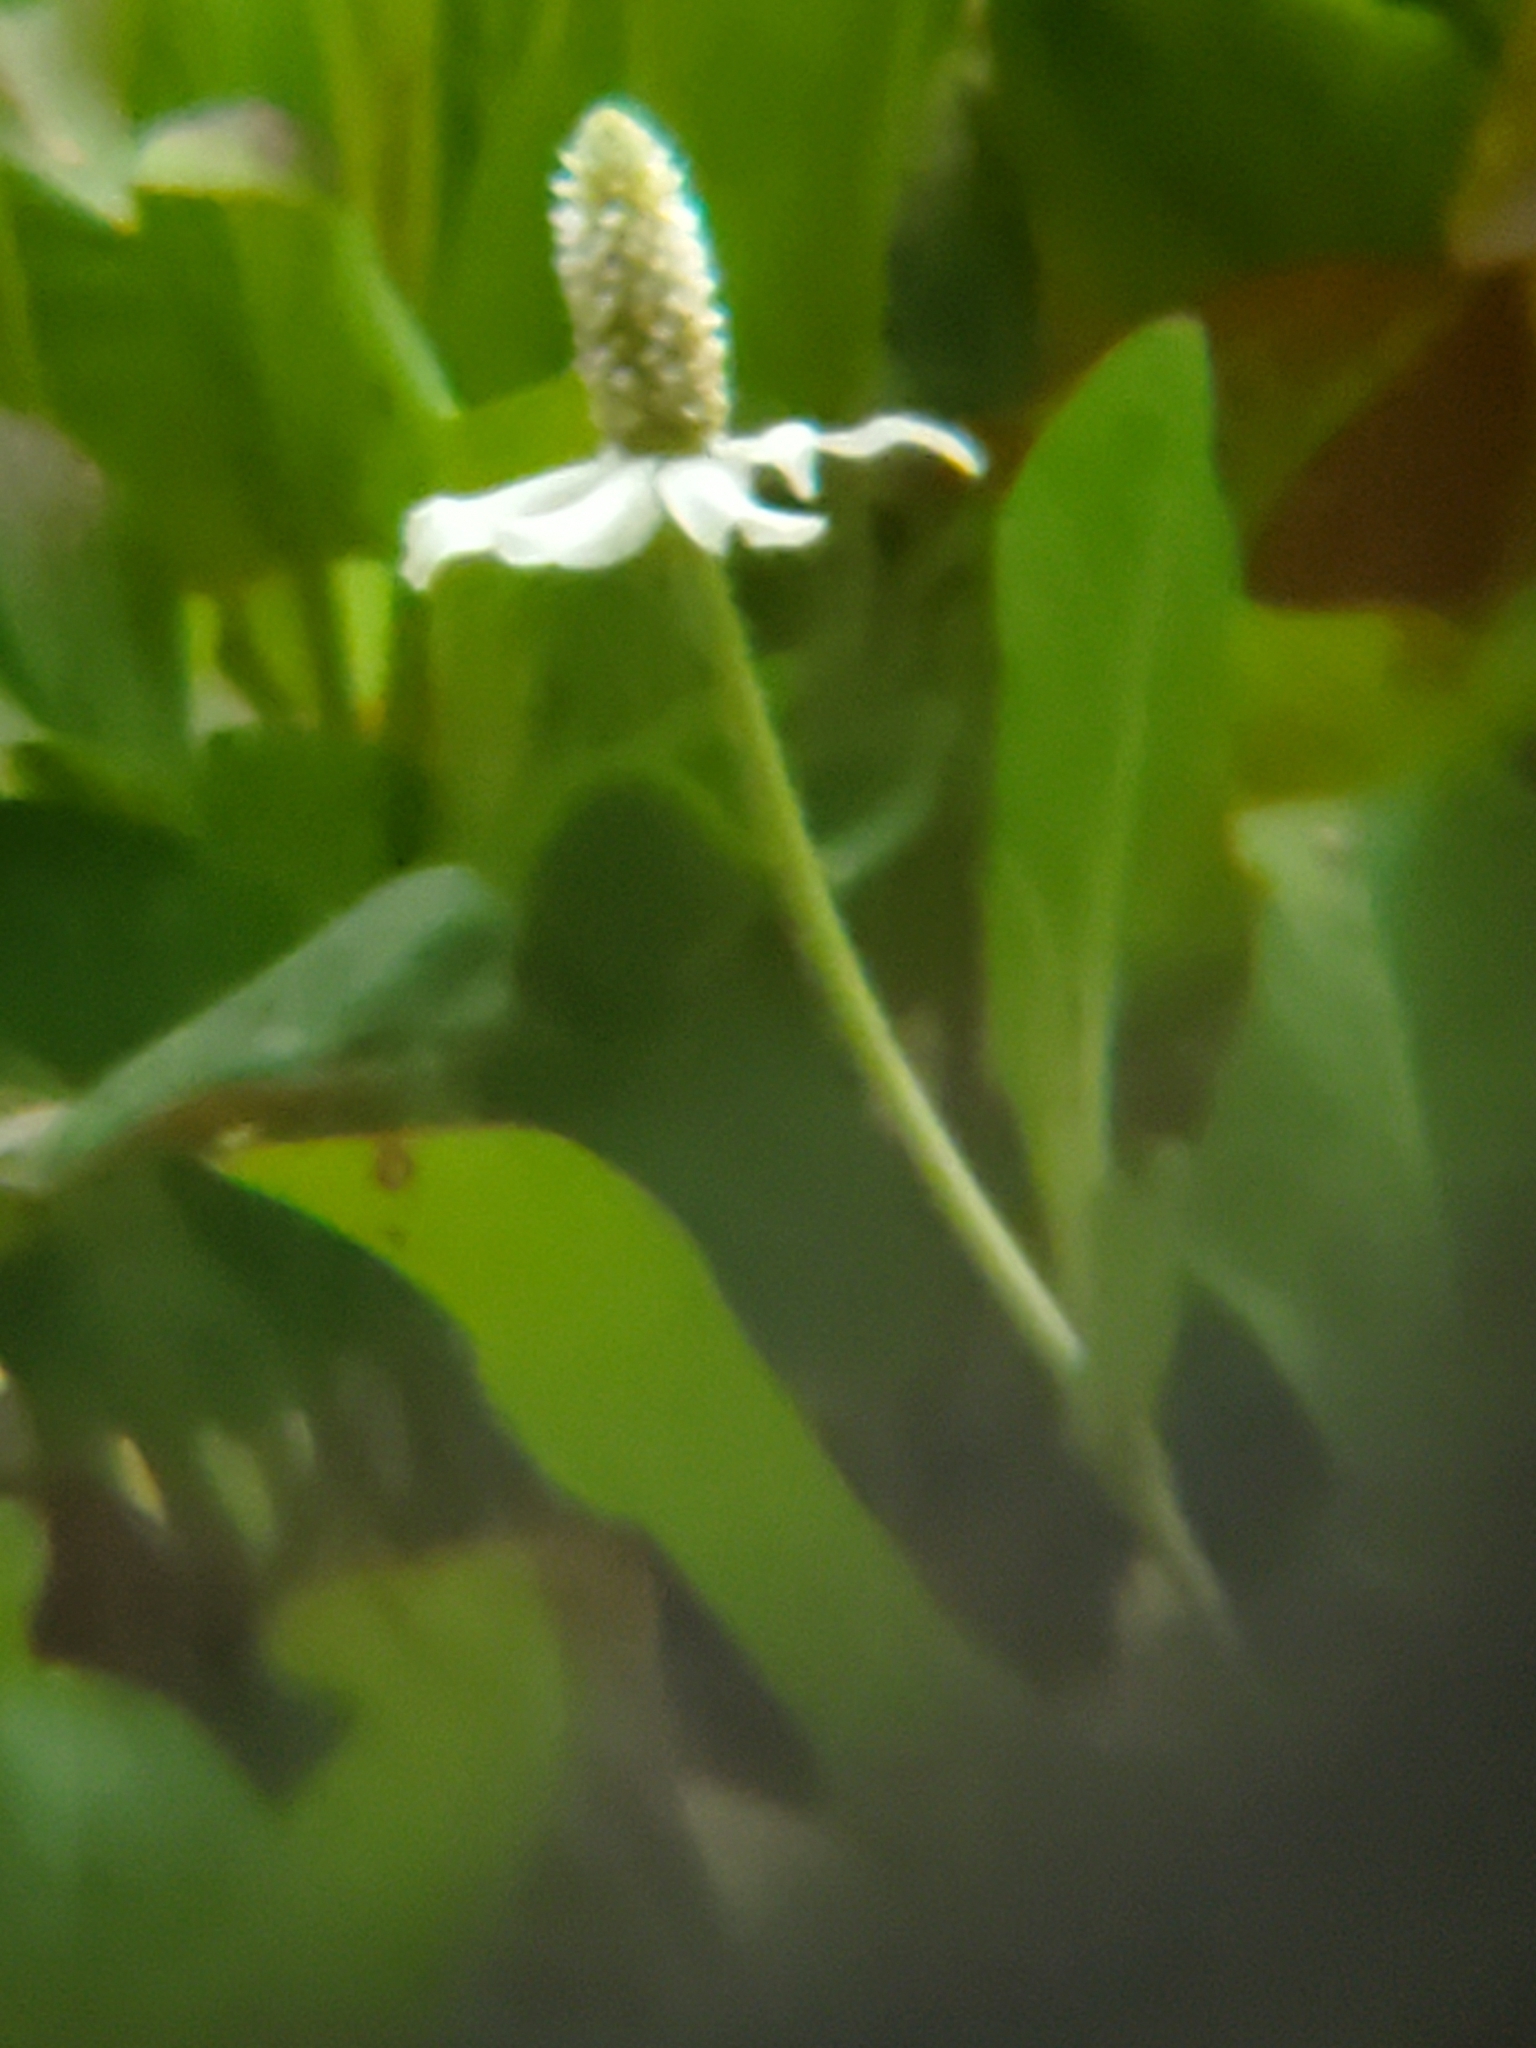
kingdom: Plantae
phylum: Tracheophyta
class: Magnoliopsida
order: Piperales
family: Saururaceae
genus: Anemopsis
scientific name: Anemopsis californica
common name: Apache-beads
